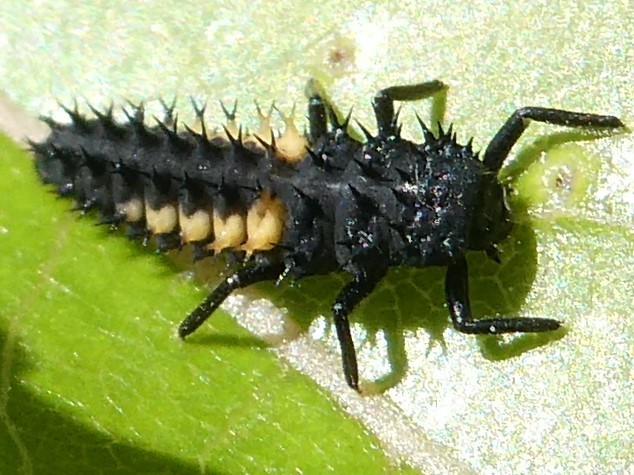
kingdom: Animalia
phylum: Arthropoda
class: Insecta
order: Coleoptera
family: Coccinellidae
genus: Harmonia
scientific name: Harmonia axyridis
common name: Harlequin ladybird
